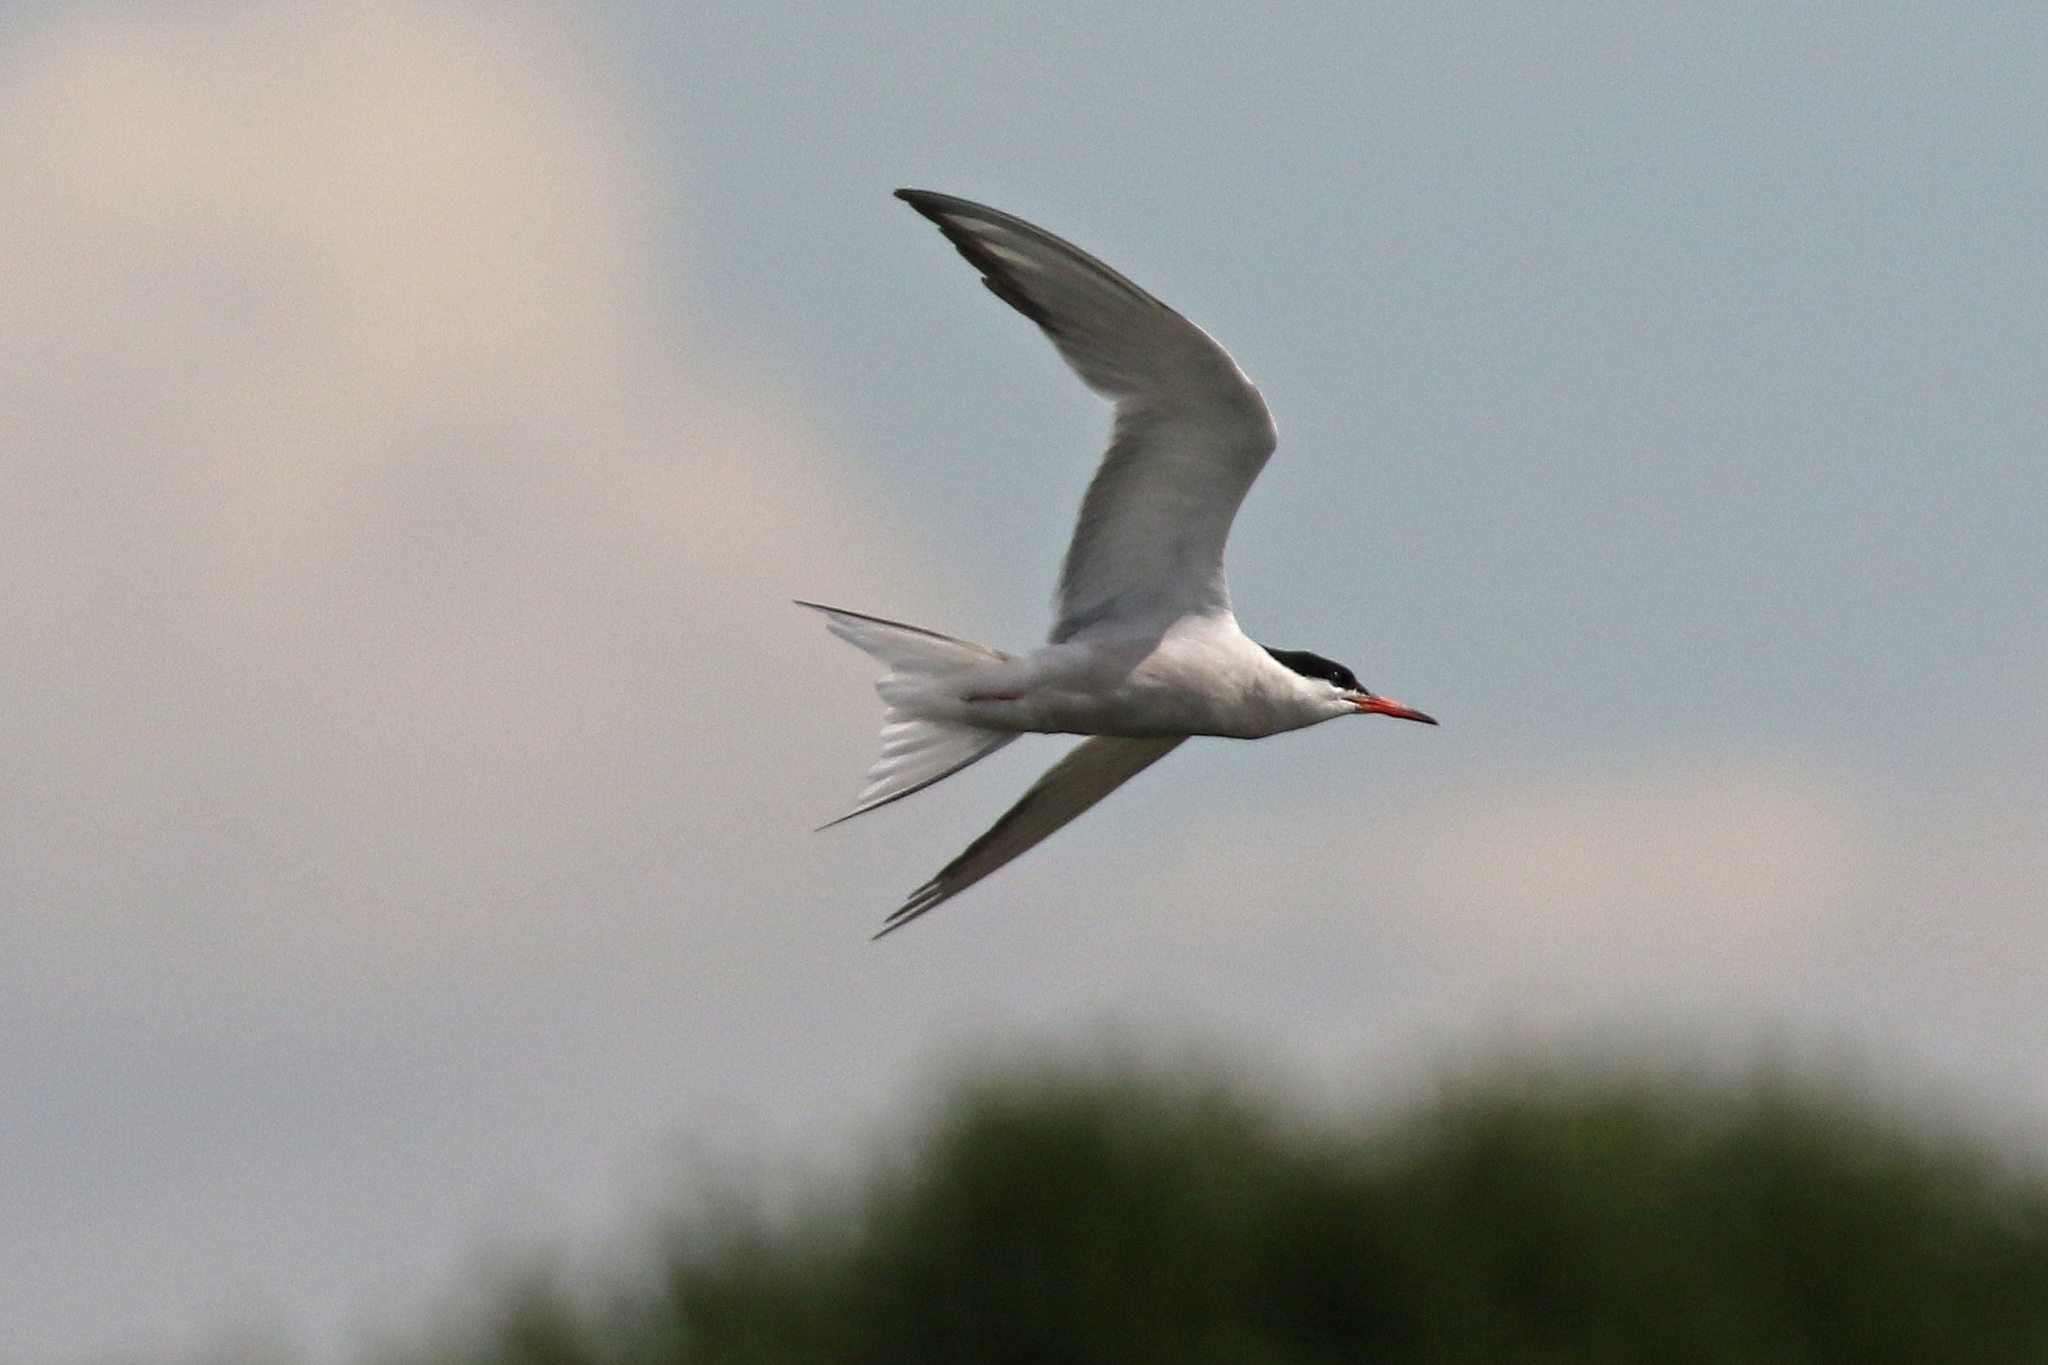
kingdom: Animalia
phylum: Chordata
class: Aves
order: Charadriiformes
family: Laridae
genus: Sterna
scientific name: Sterna hirundo
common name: Common tern
